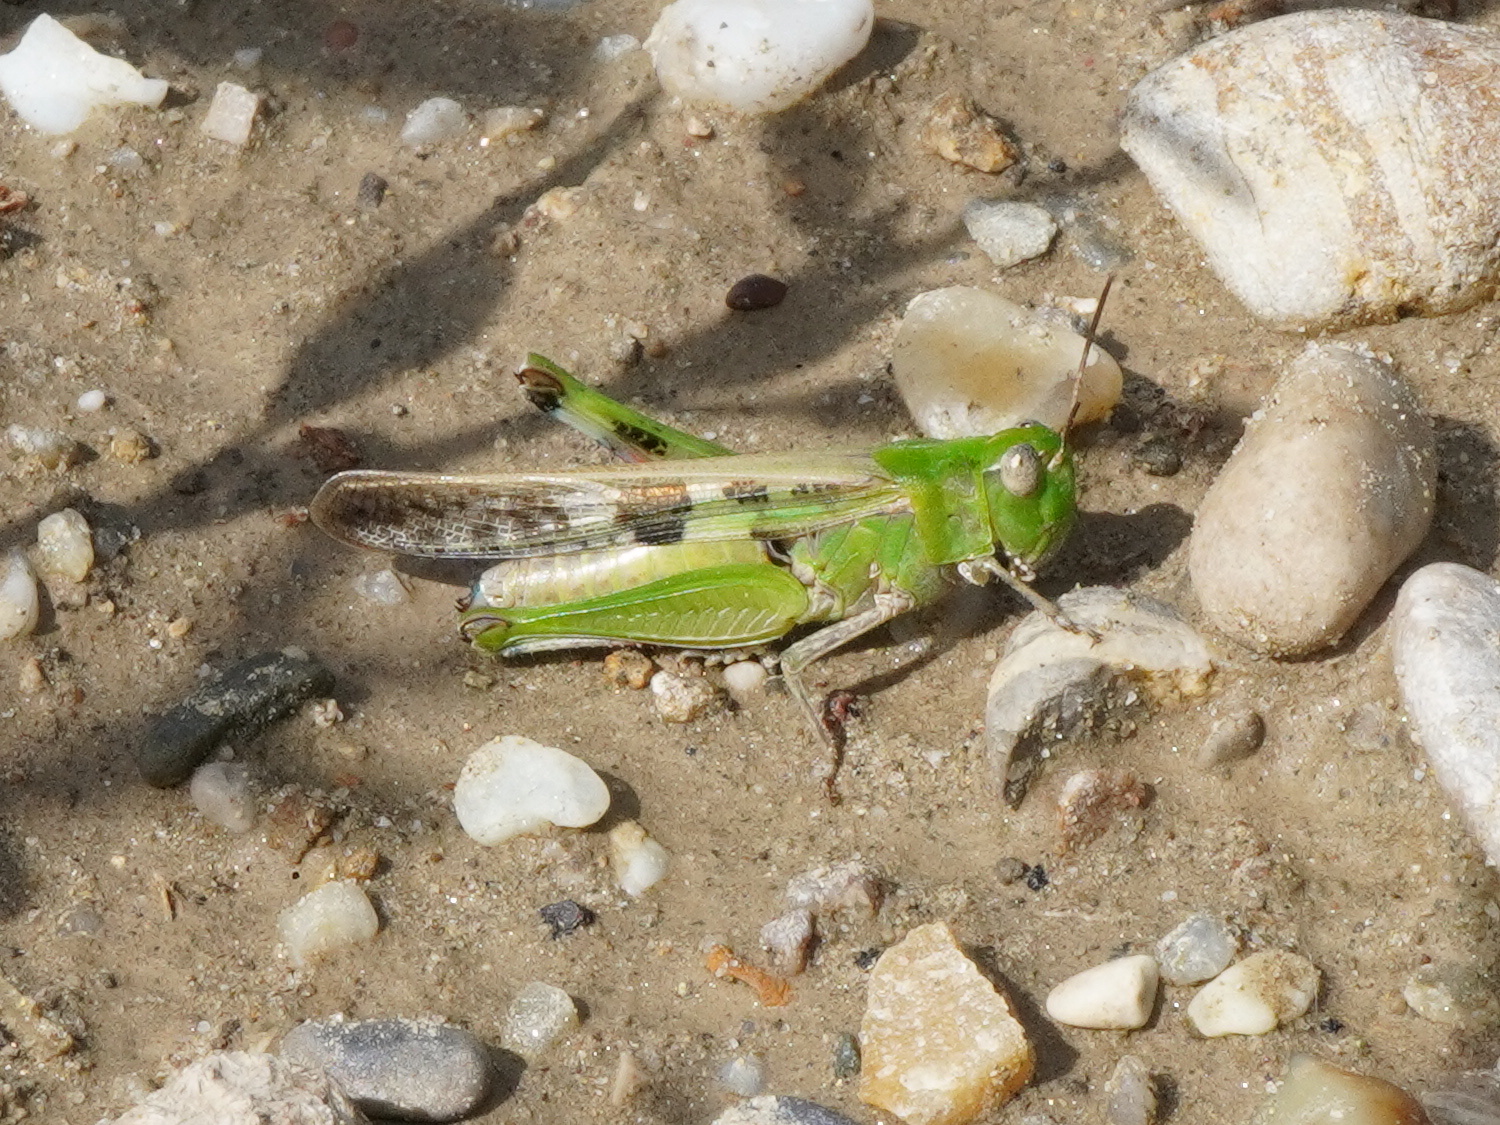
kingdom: Animalia
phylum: Arthropoda
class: Insecta
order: Orthoptera
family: Acrididae
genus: Aiolopus
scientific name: Aiolopus thalassinus
